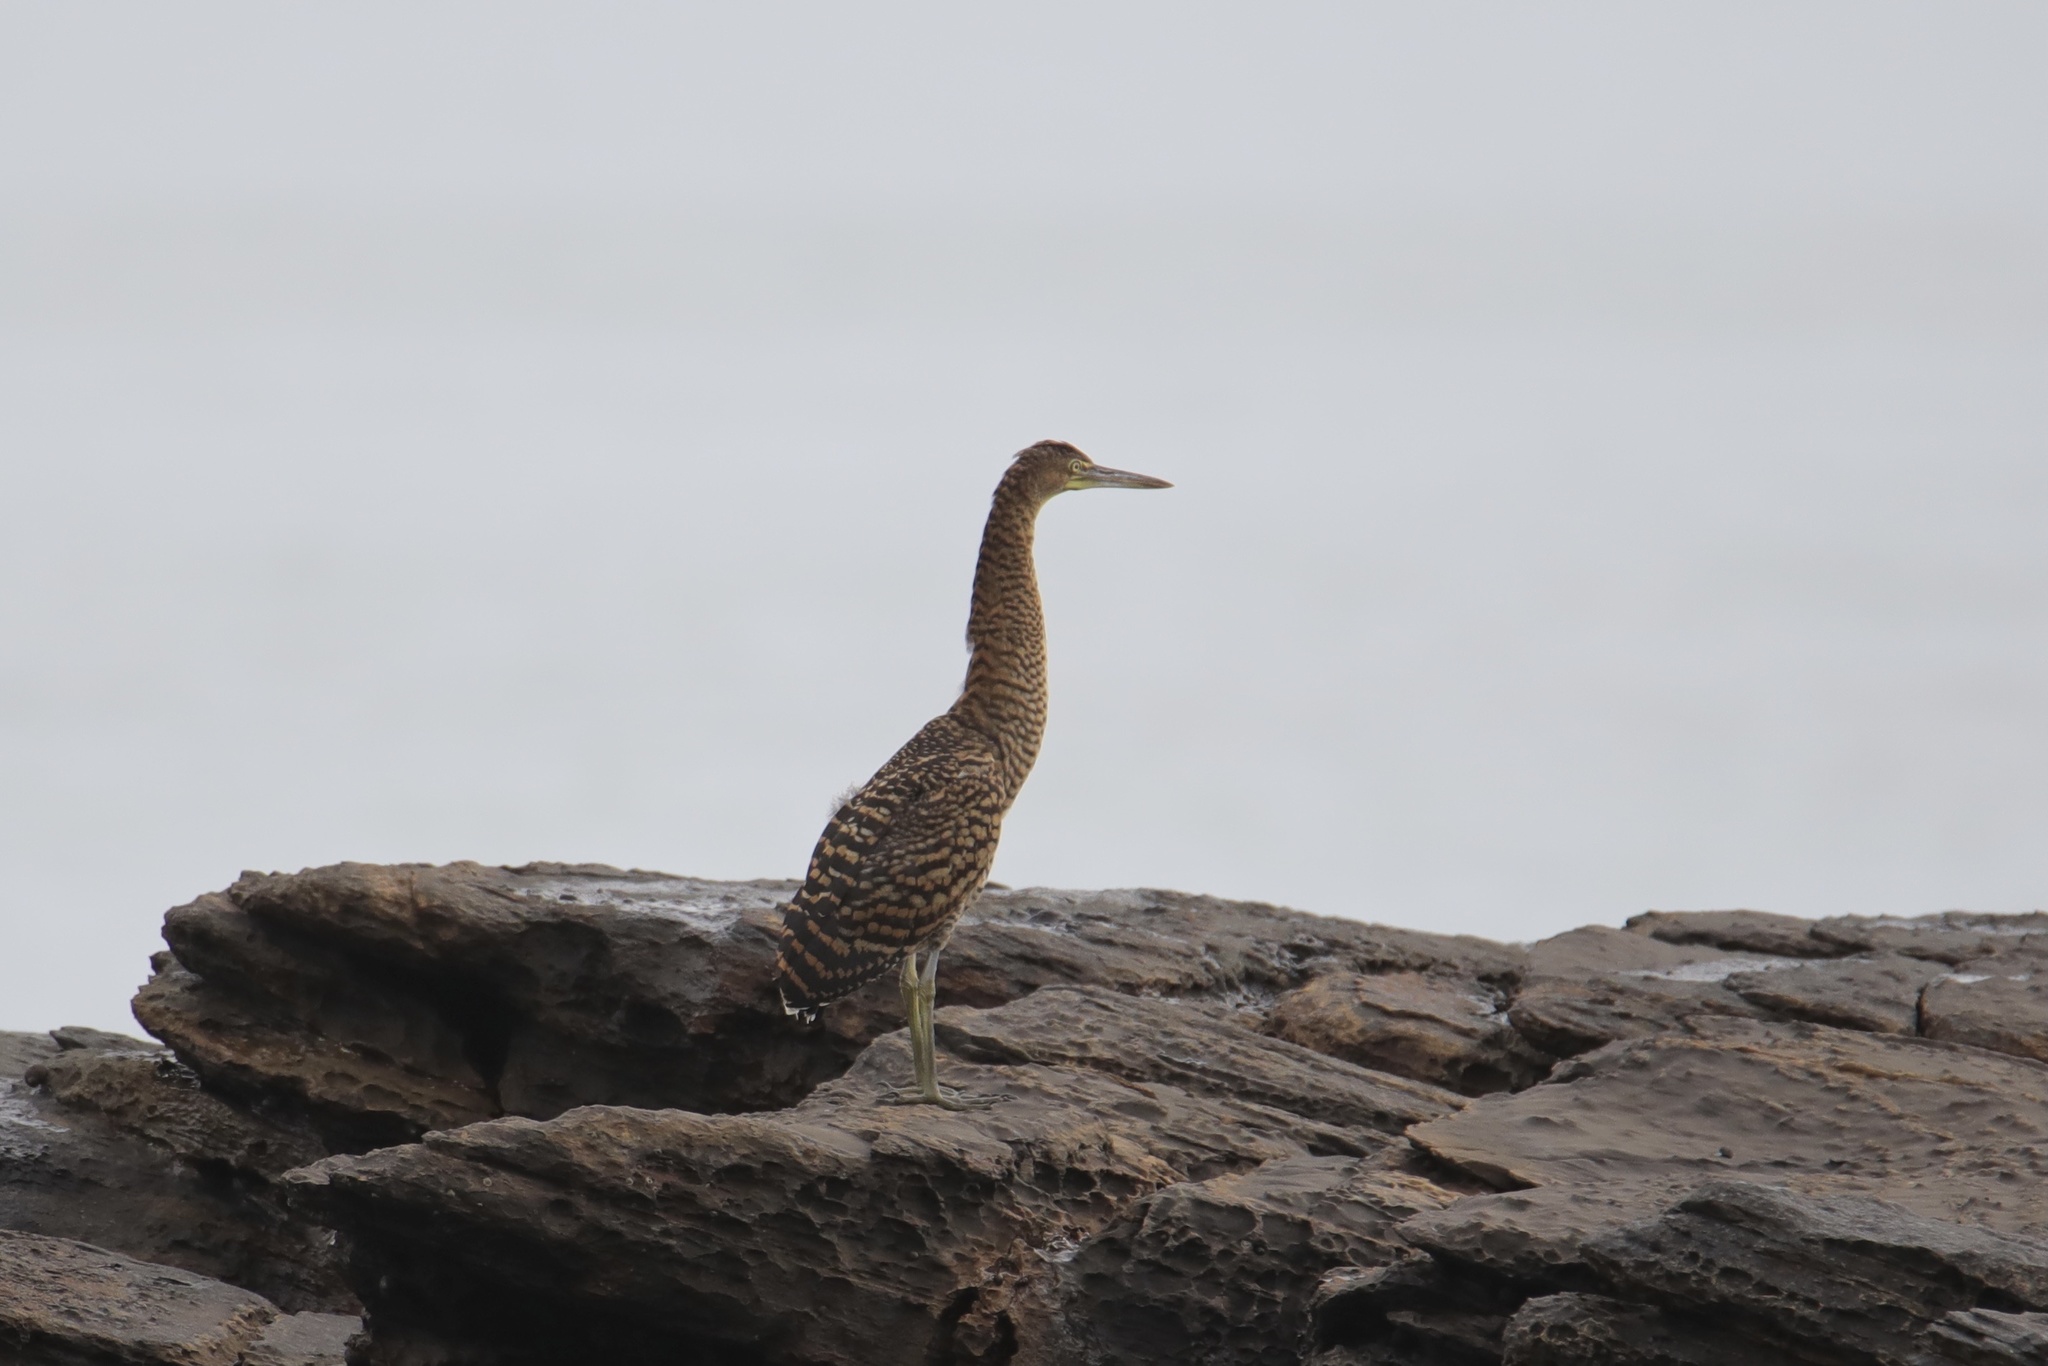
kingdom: Animalia
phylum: Chordata
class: Aves
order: Pelecaniformes
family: Ardeidae
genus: Tigrisoma
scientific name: Tigrisoma mexicanum
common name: Bare-throated tiger-heron
